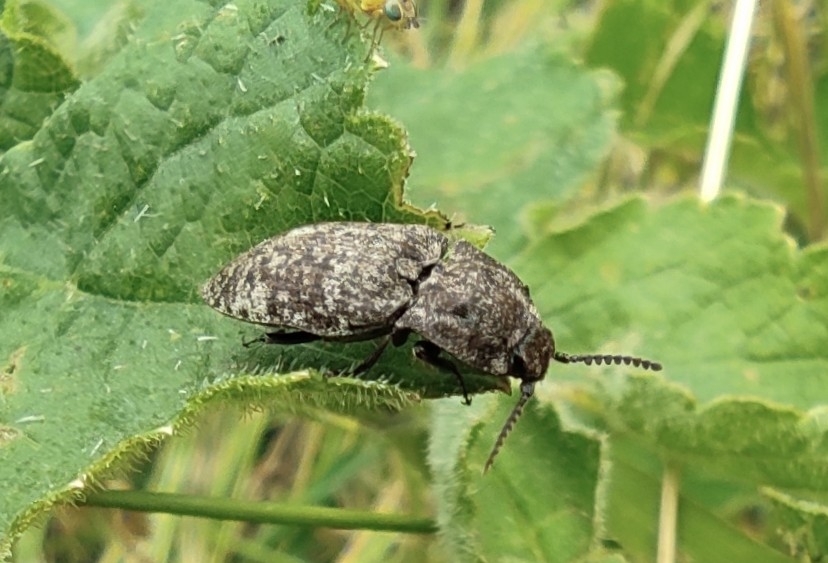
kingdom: Animalia
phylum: Arthropoda
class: Insecta
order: Coleoptera
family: Elateridae
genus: Agrypnus
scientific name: Agrypnus murinus
